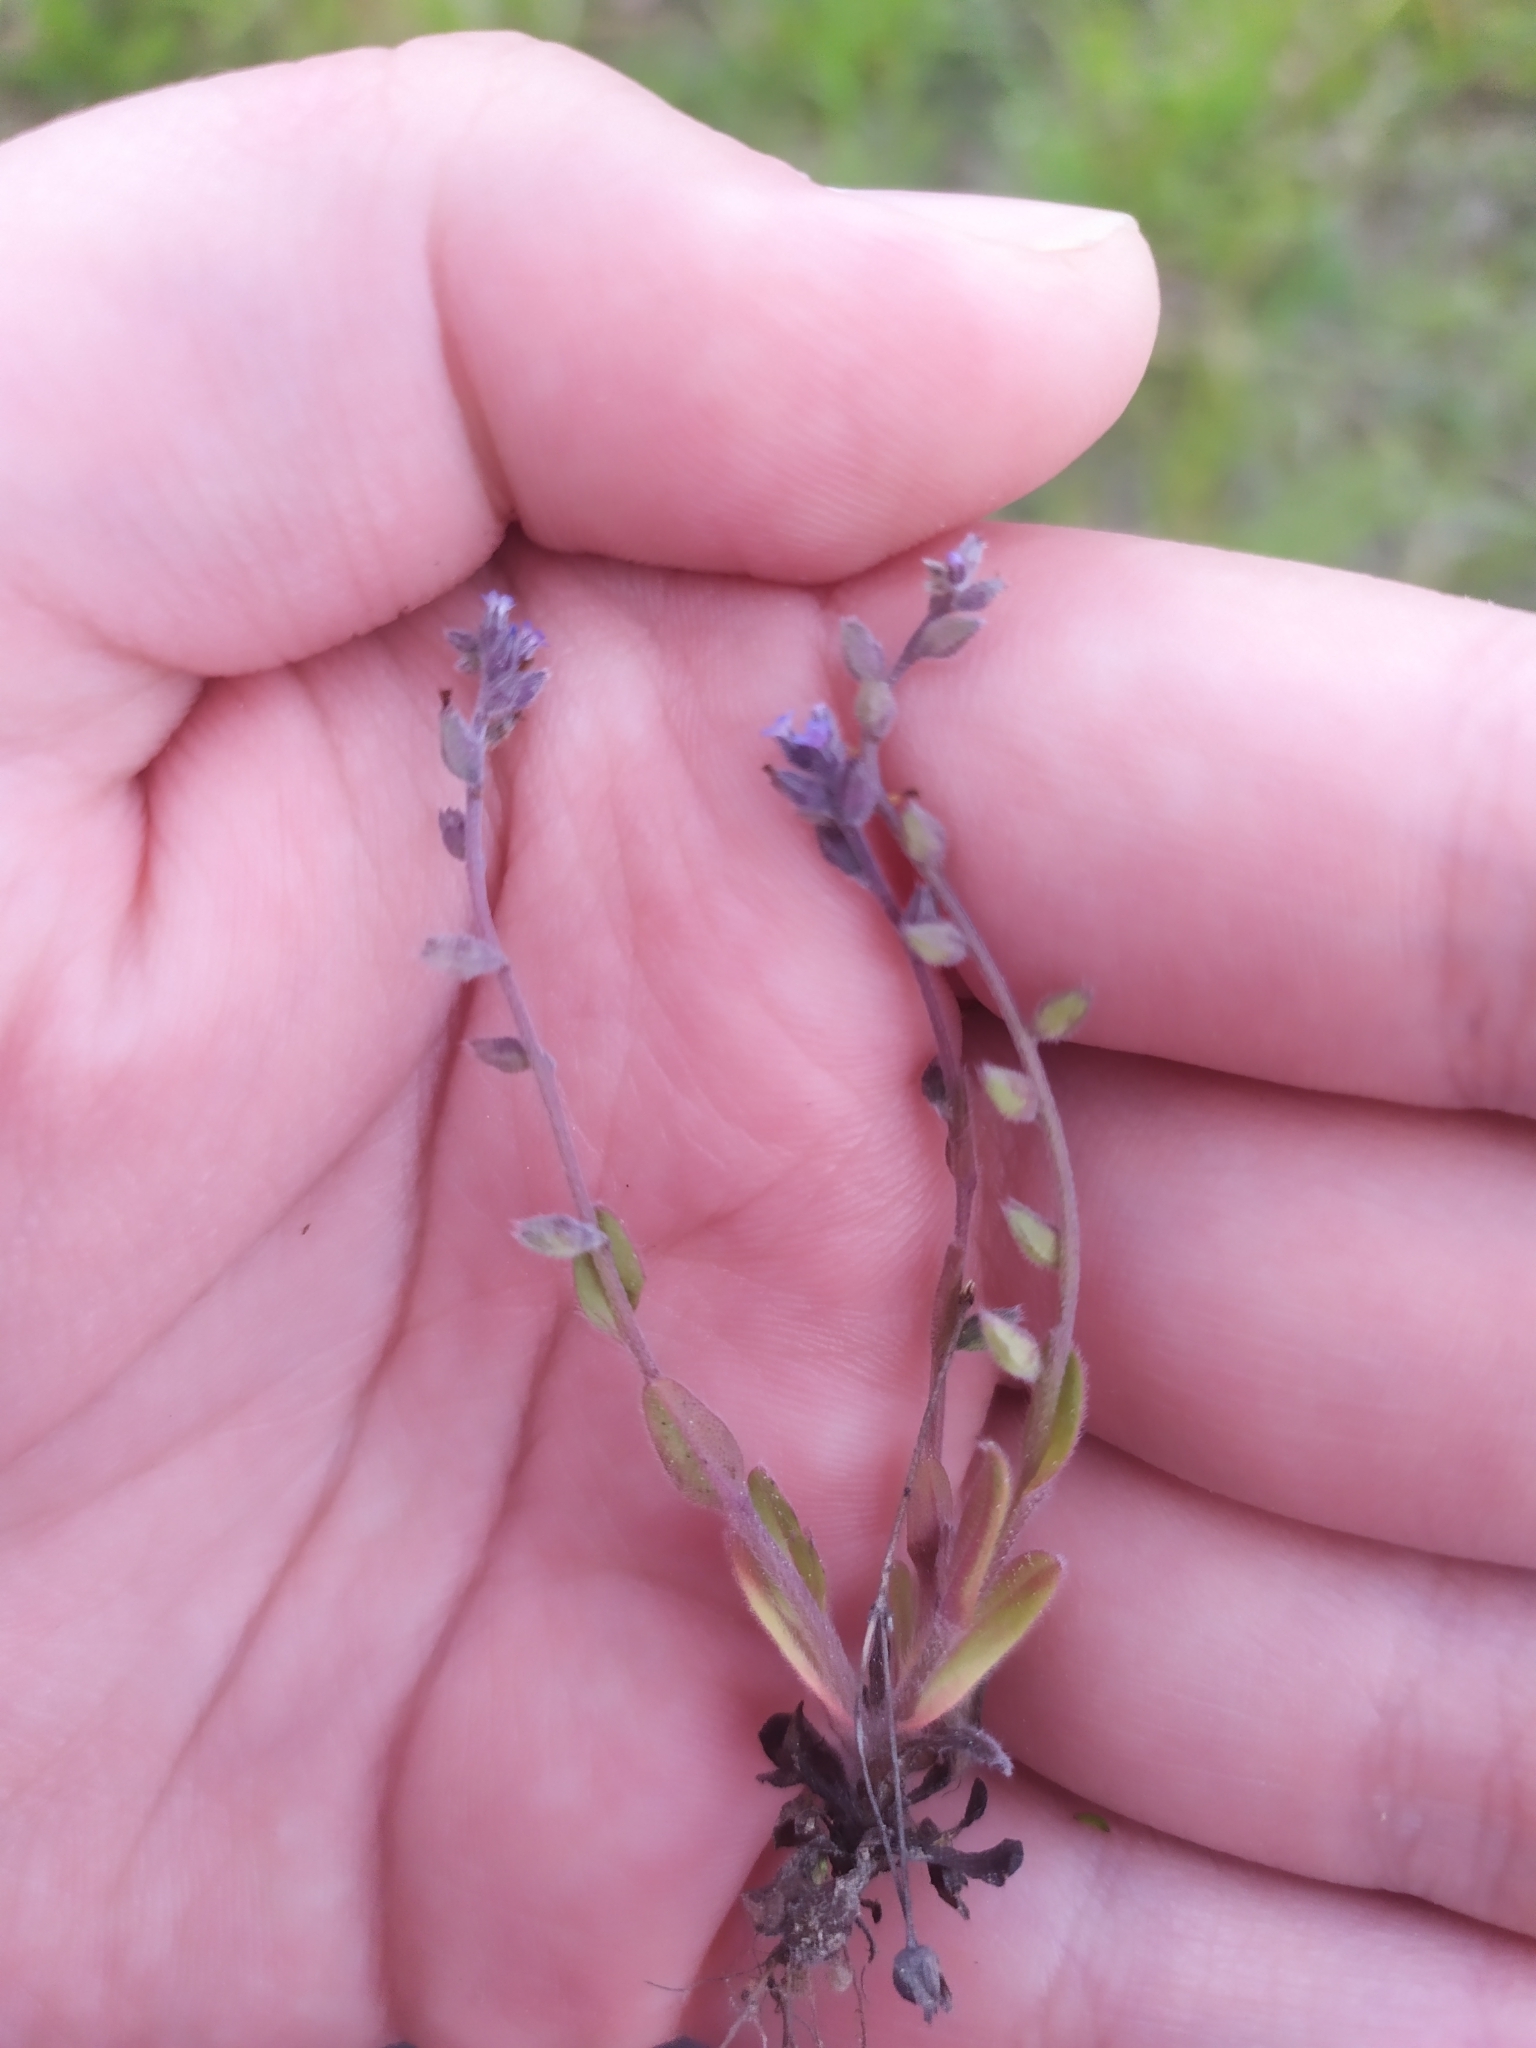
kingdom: Plantae
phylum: Tracheophyta
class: Magnoliopsida
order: Boraginales
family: Boraginaceae
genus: Myosotis
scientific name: Myosotis stricta
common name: Strict forget-me-not
